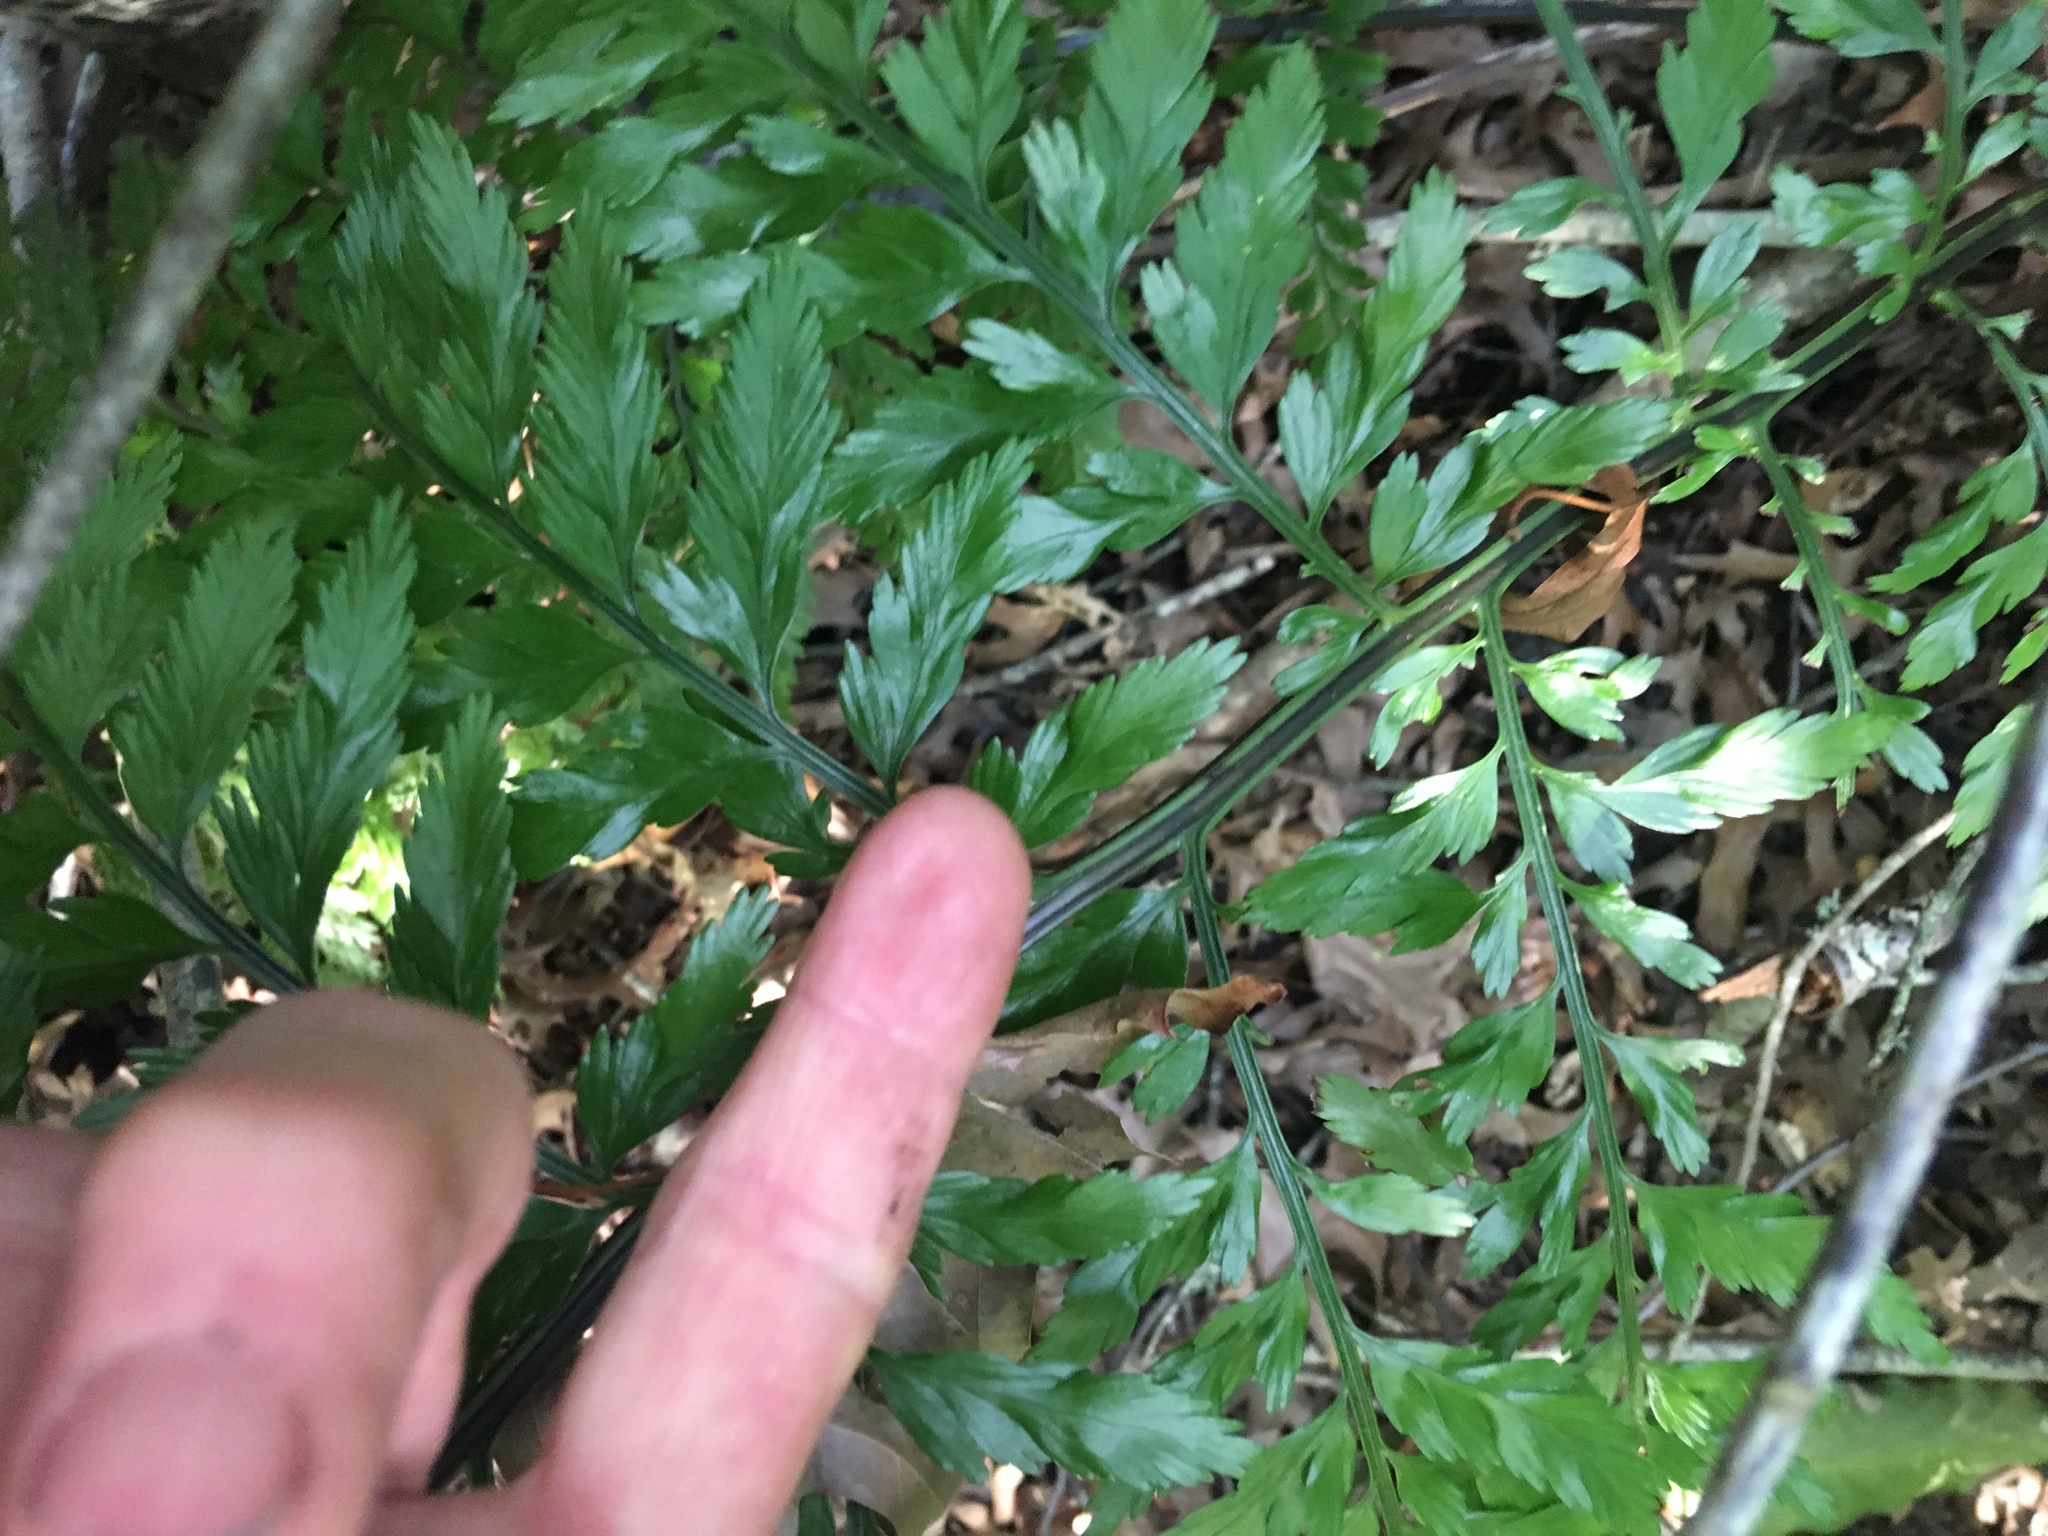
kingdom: Plantae
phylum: Tracheophyta
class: Polypodiopsida
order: Polypodiales
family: Aspleniaceae
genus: Asplenium
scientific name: Asplenium lucrosum
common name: False hen-and-chickens fern
